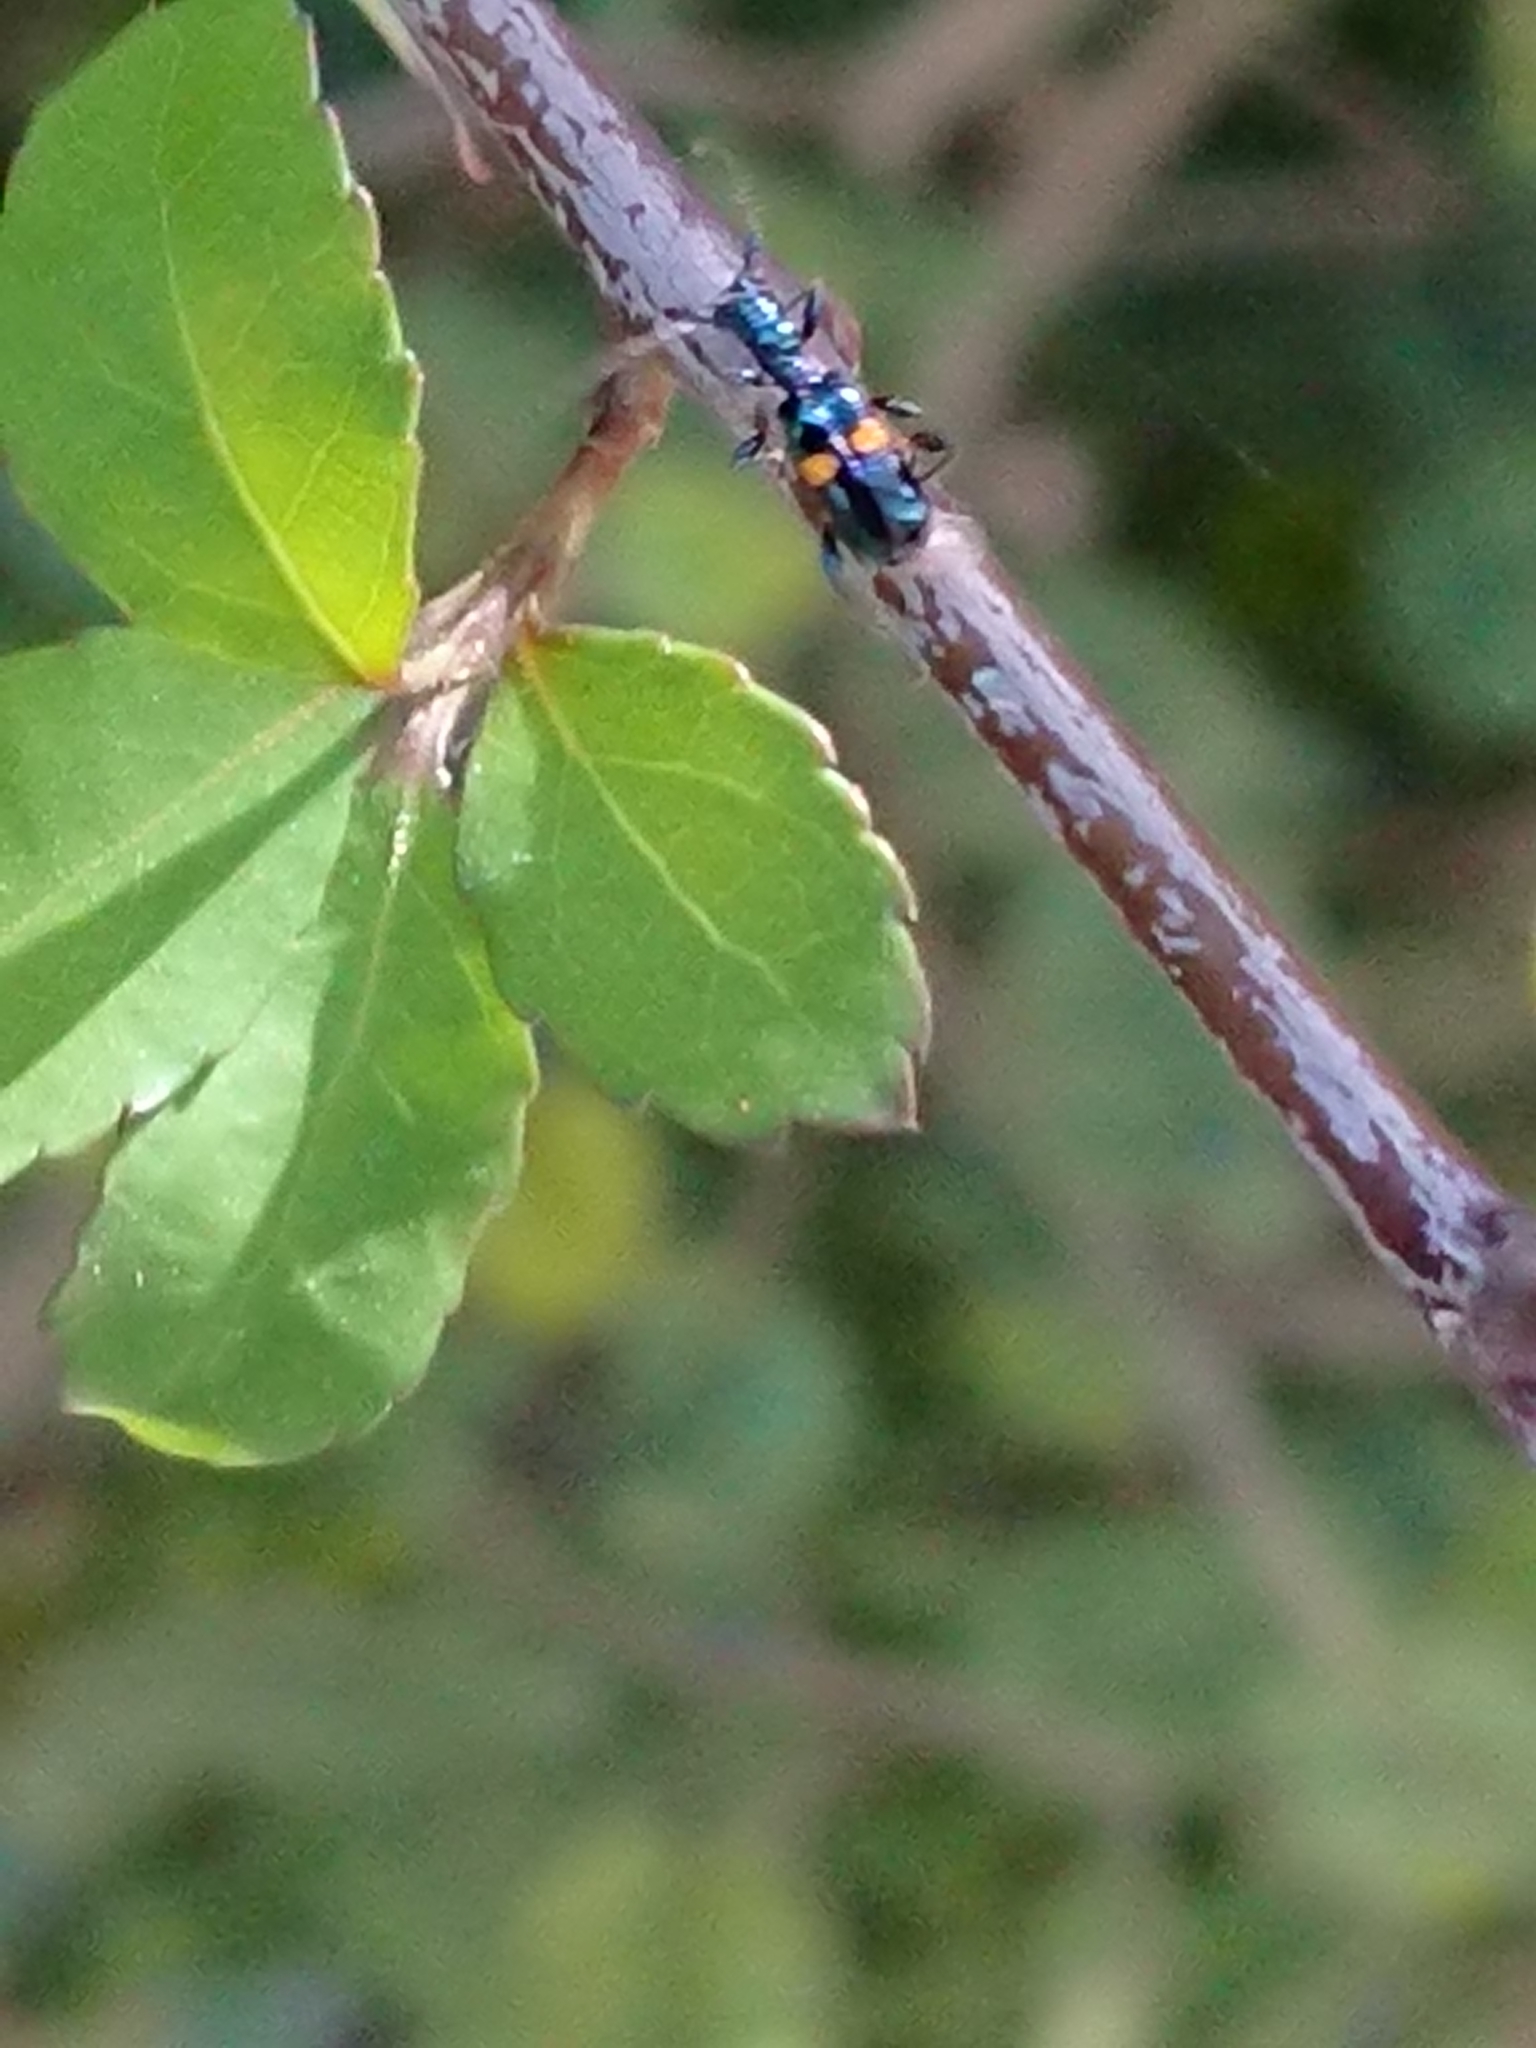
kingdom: Animalia
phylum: Arthropoda
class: Insecta
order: Coleoptera
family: Cerambycidae
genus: Zorion
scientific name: Zorion guttigerum
